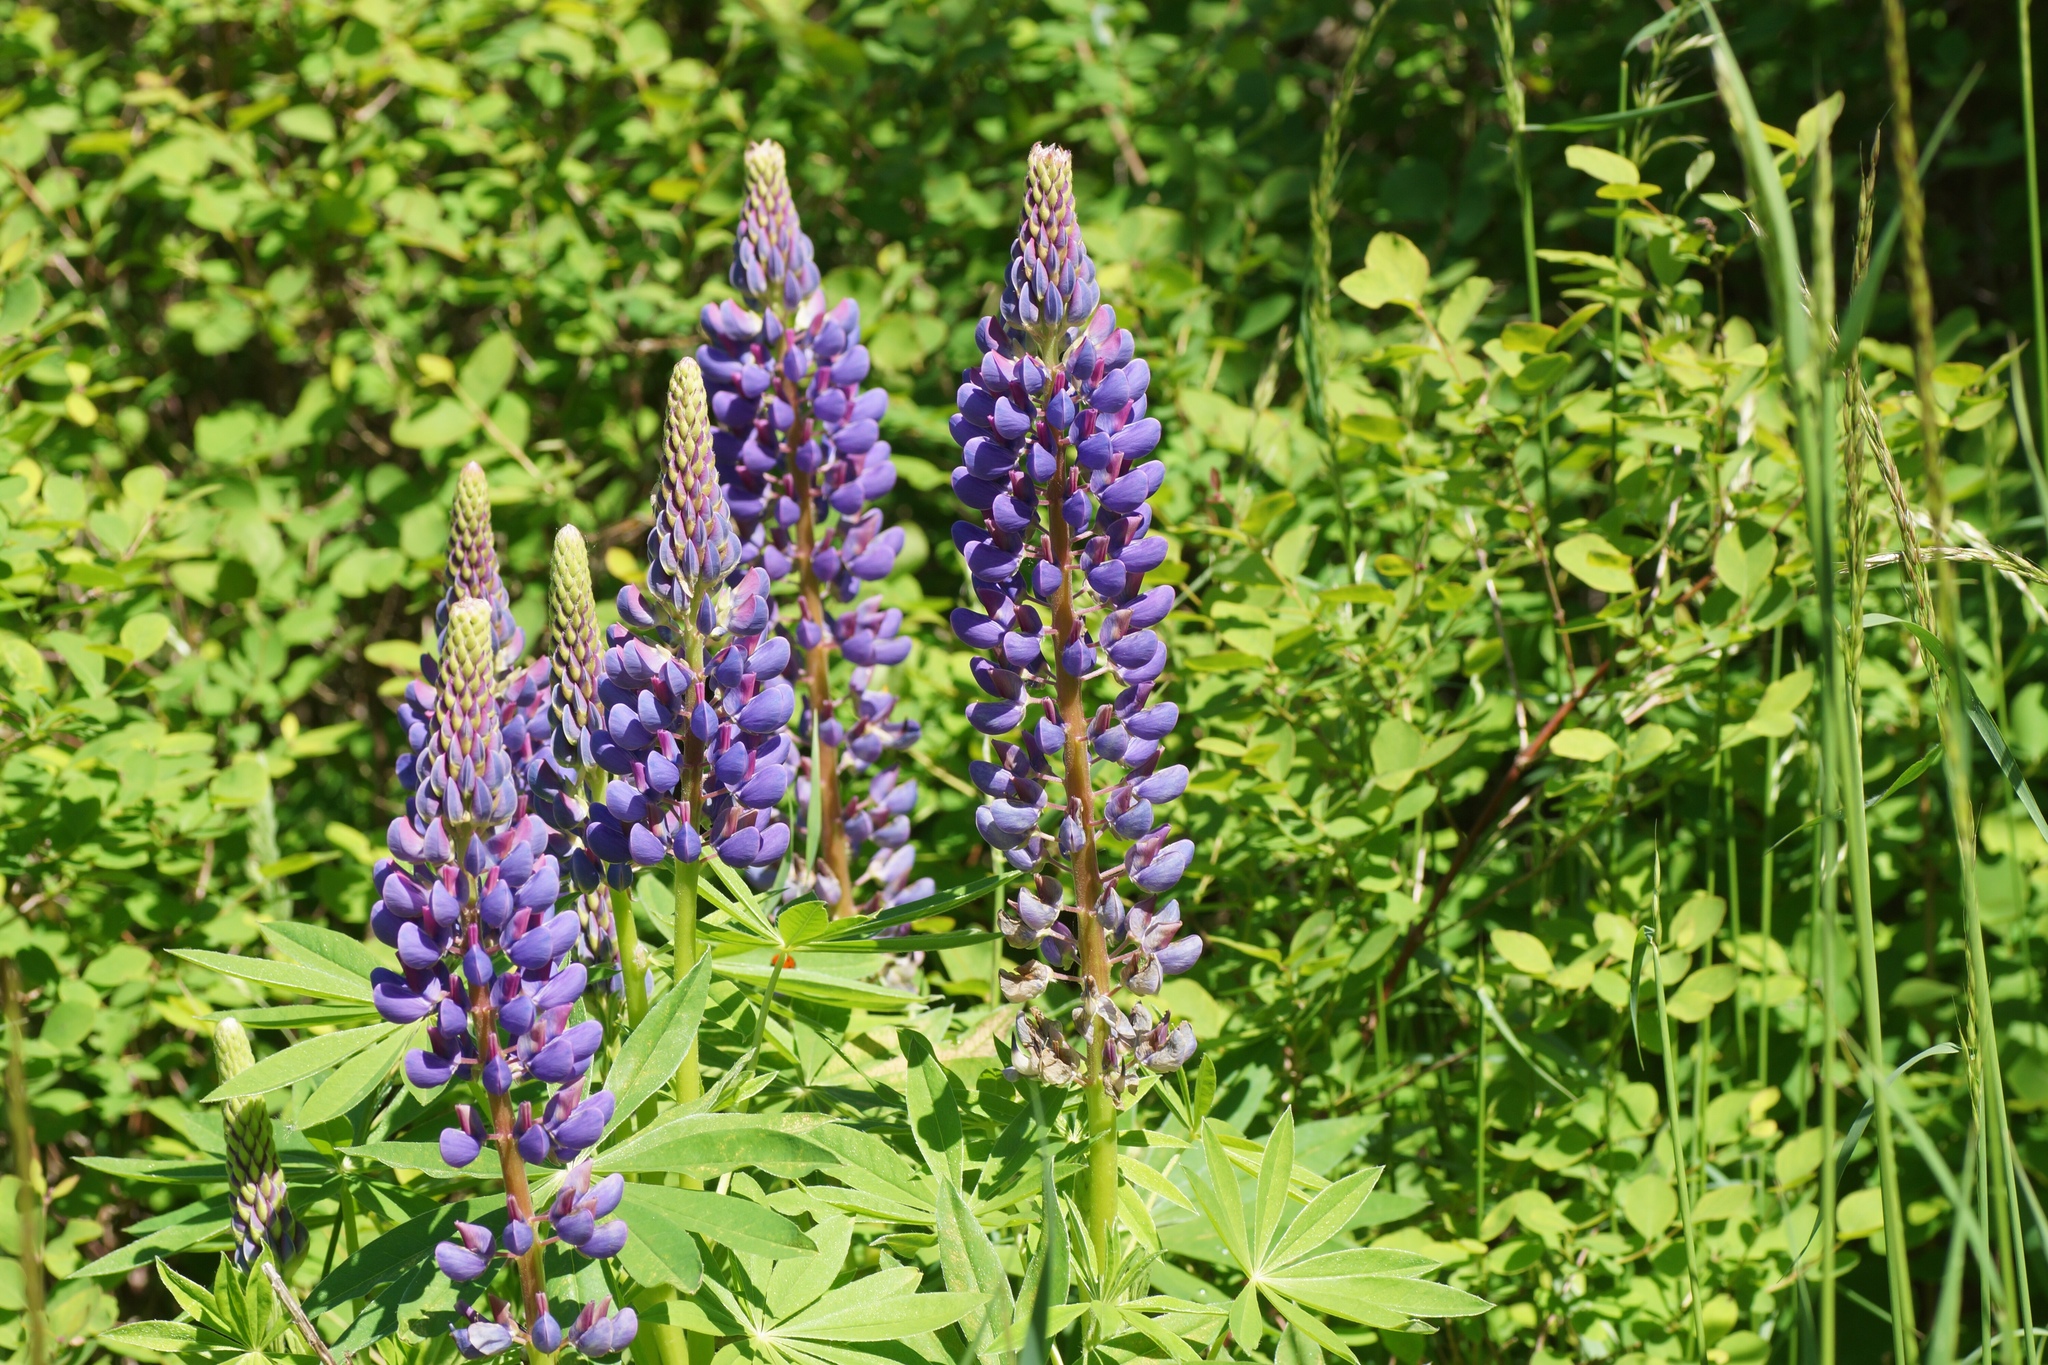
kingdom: Plantae
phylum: Tracheophyta
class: Magnoliopsida
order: Fabales
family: Fabaceae
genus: Lupinus
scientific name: Lupinus polyphyllus
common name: Garden lupin
